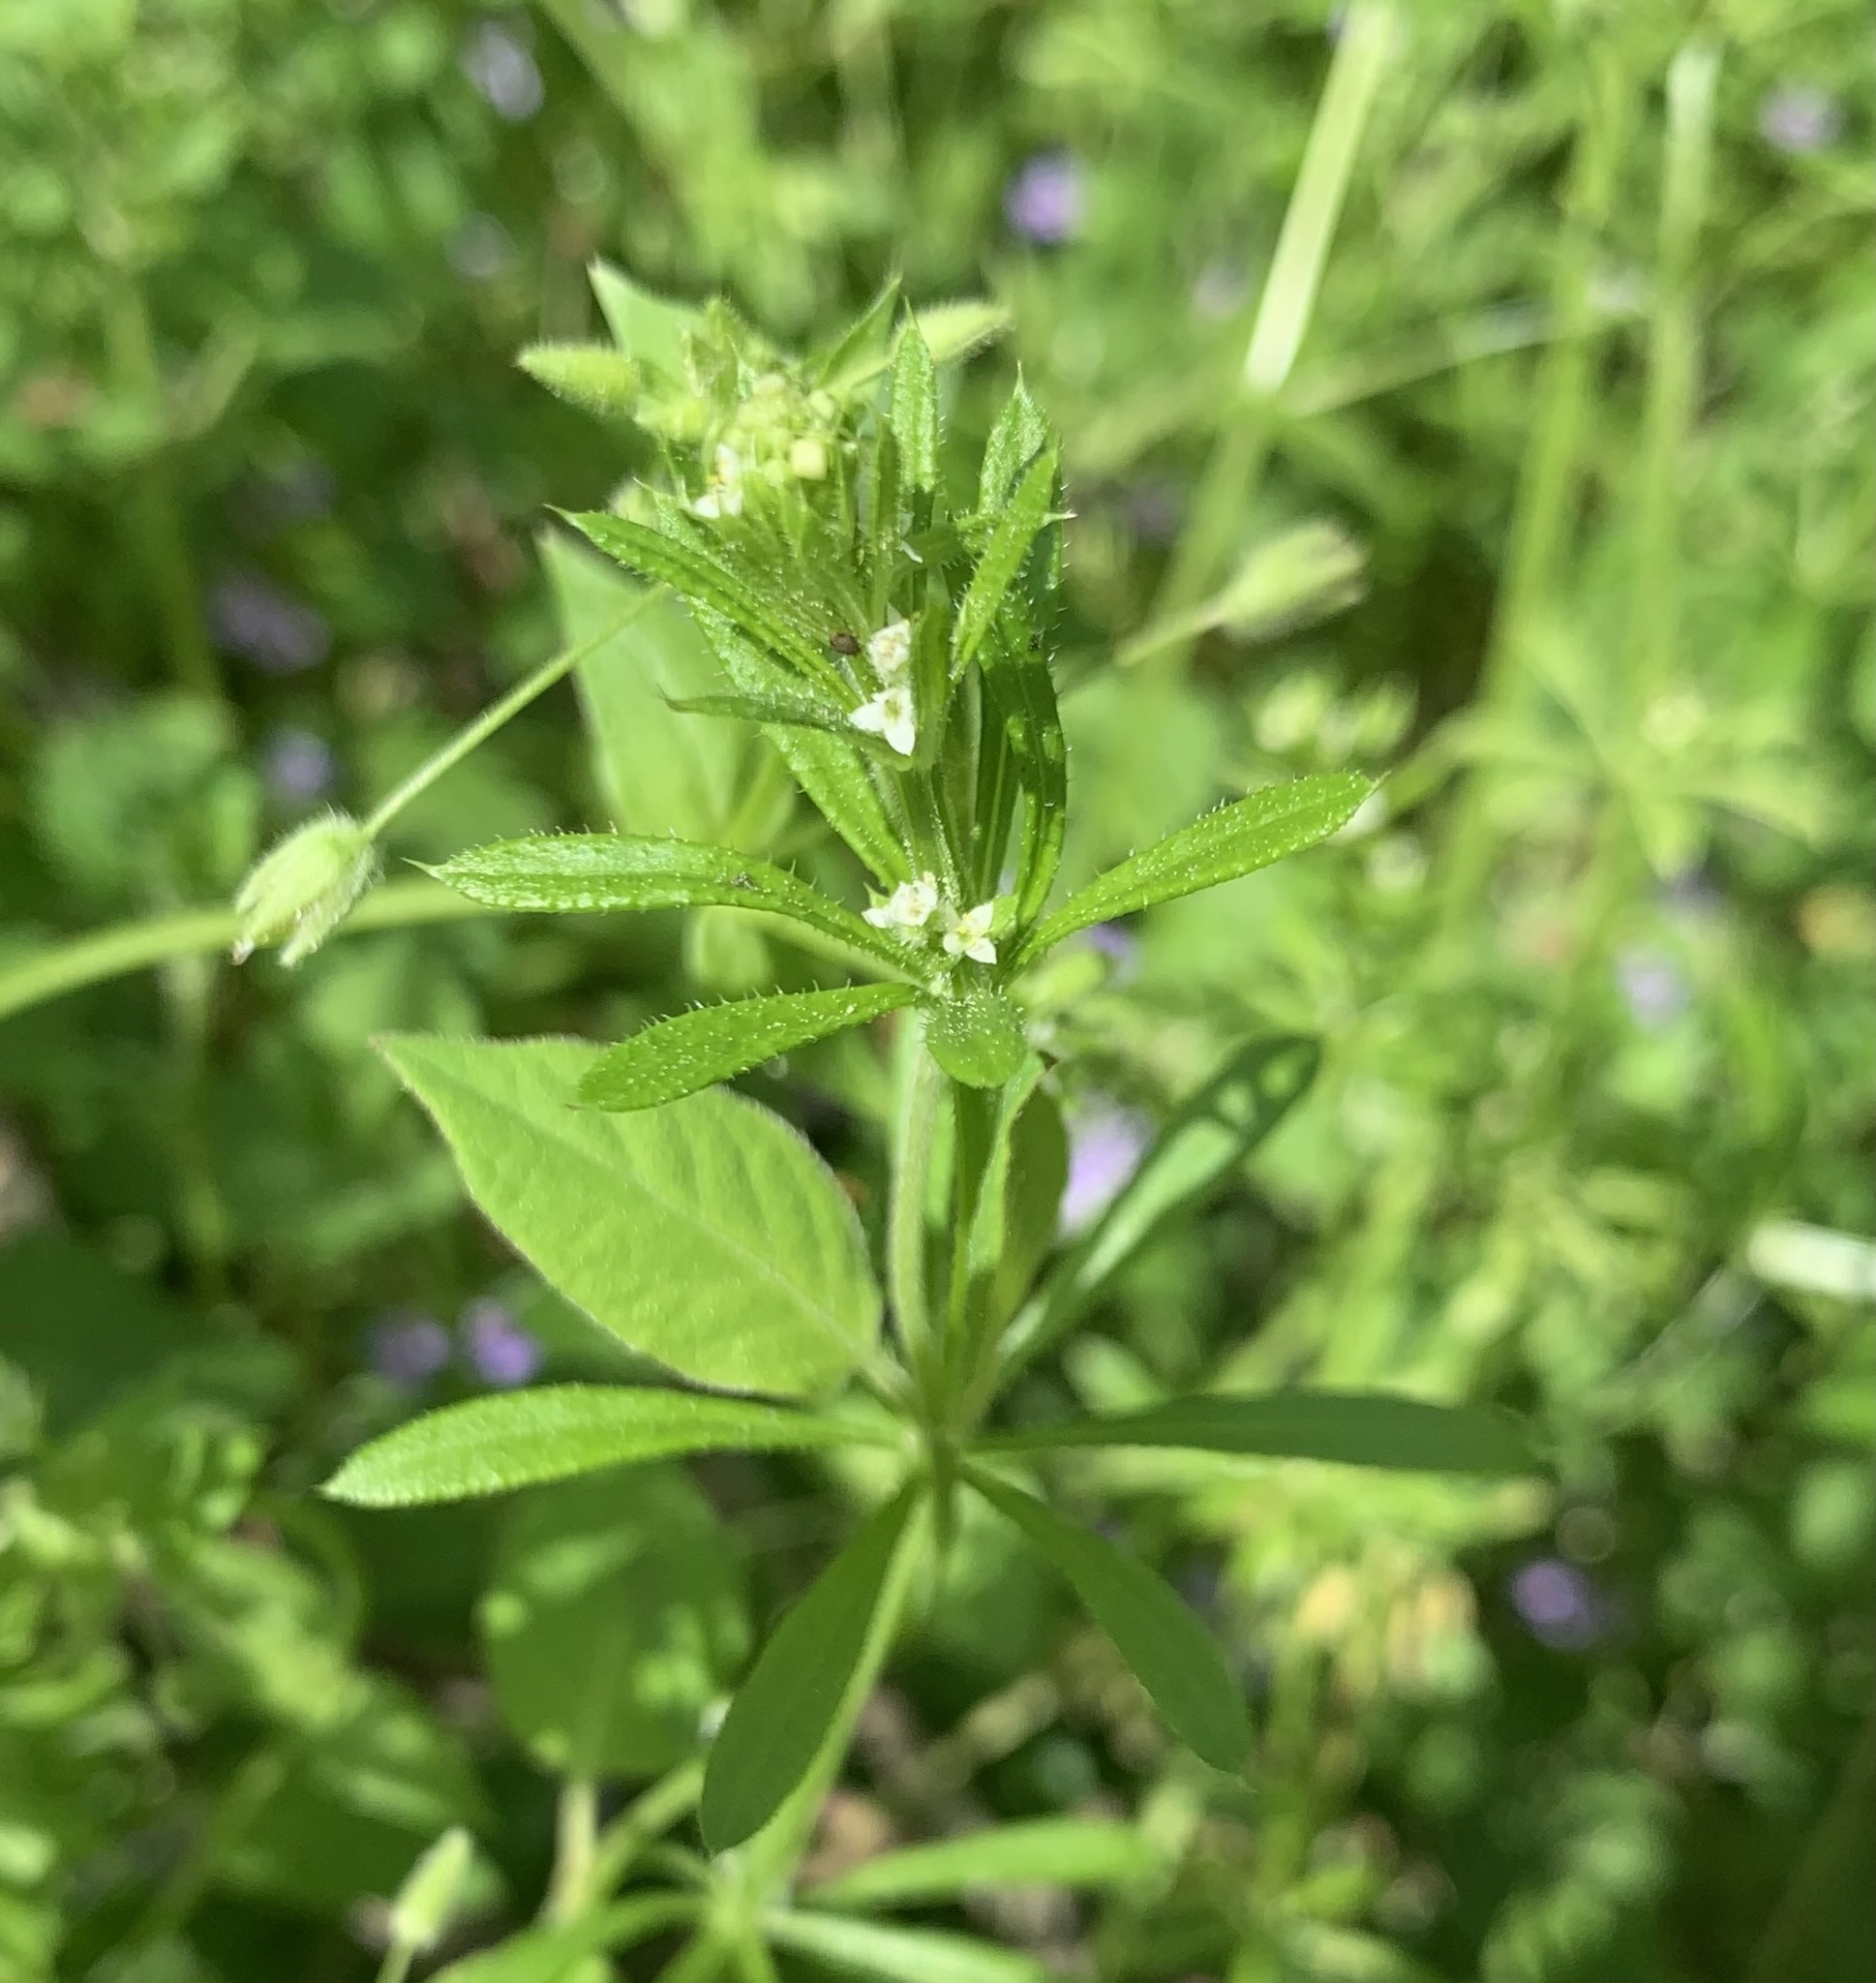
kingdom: Plantae
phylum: Tracheophyta
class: Magnoliopsida
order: Gentianales
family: Rubiaceae
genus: Galium
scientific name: Galium aparine
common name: Cleavers
